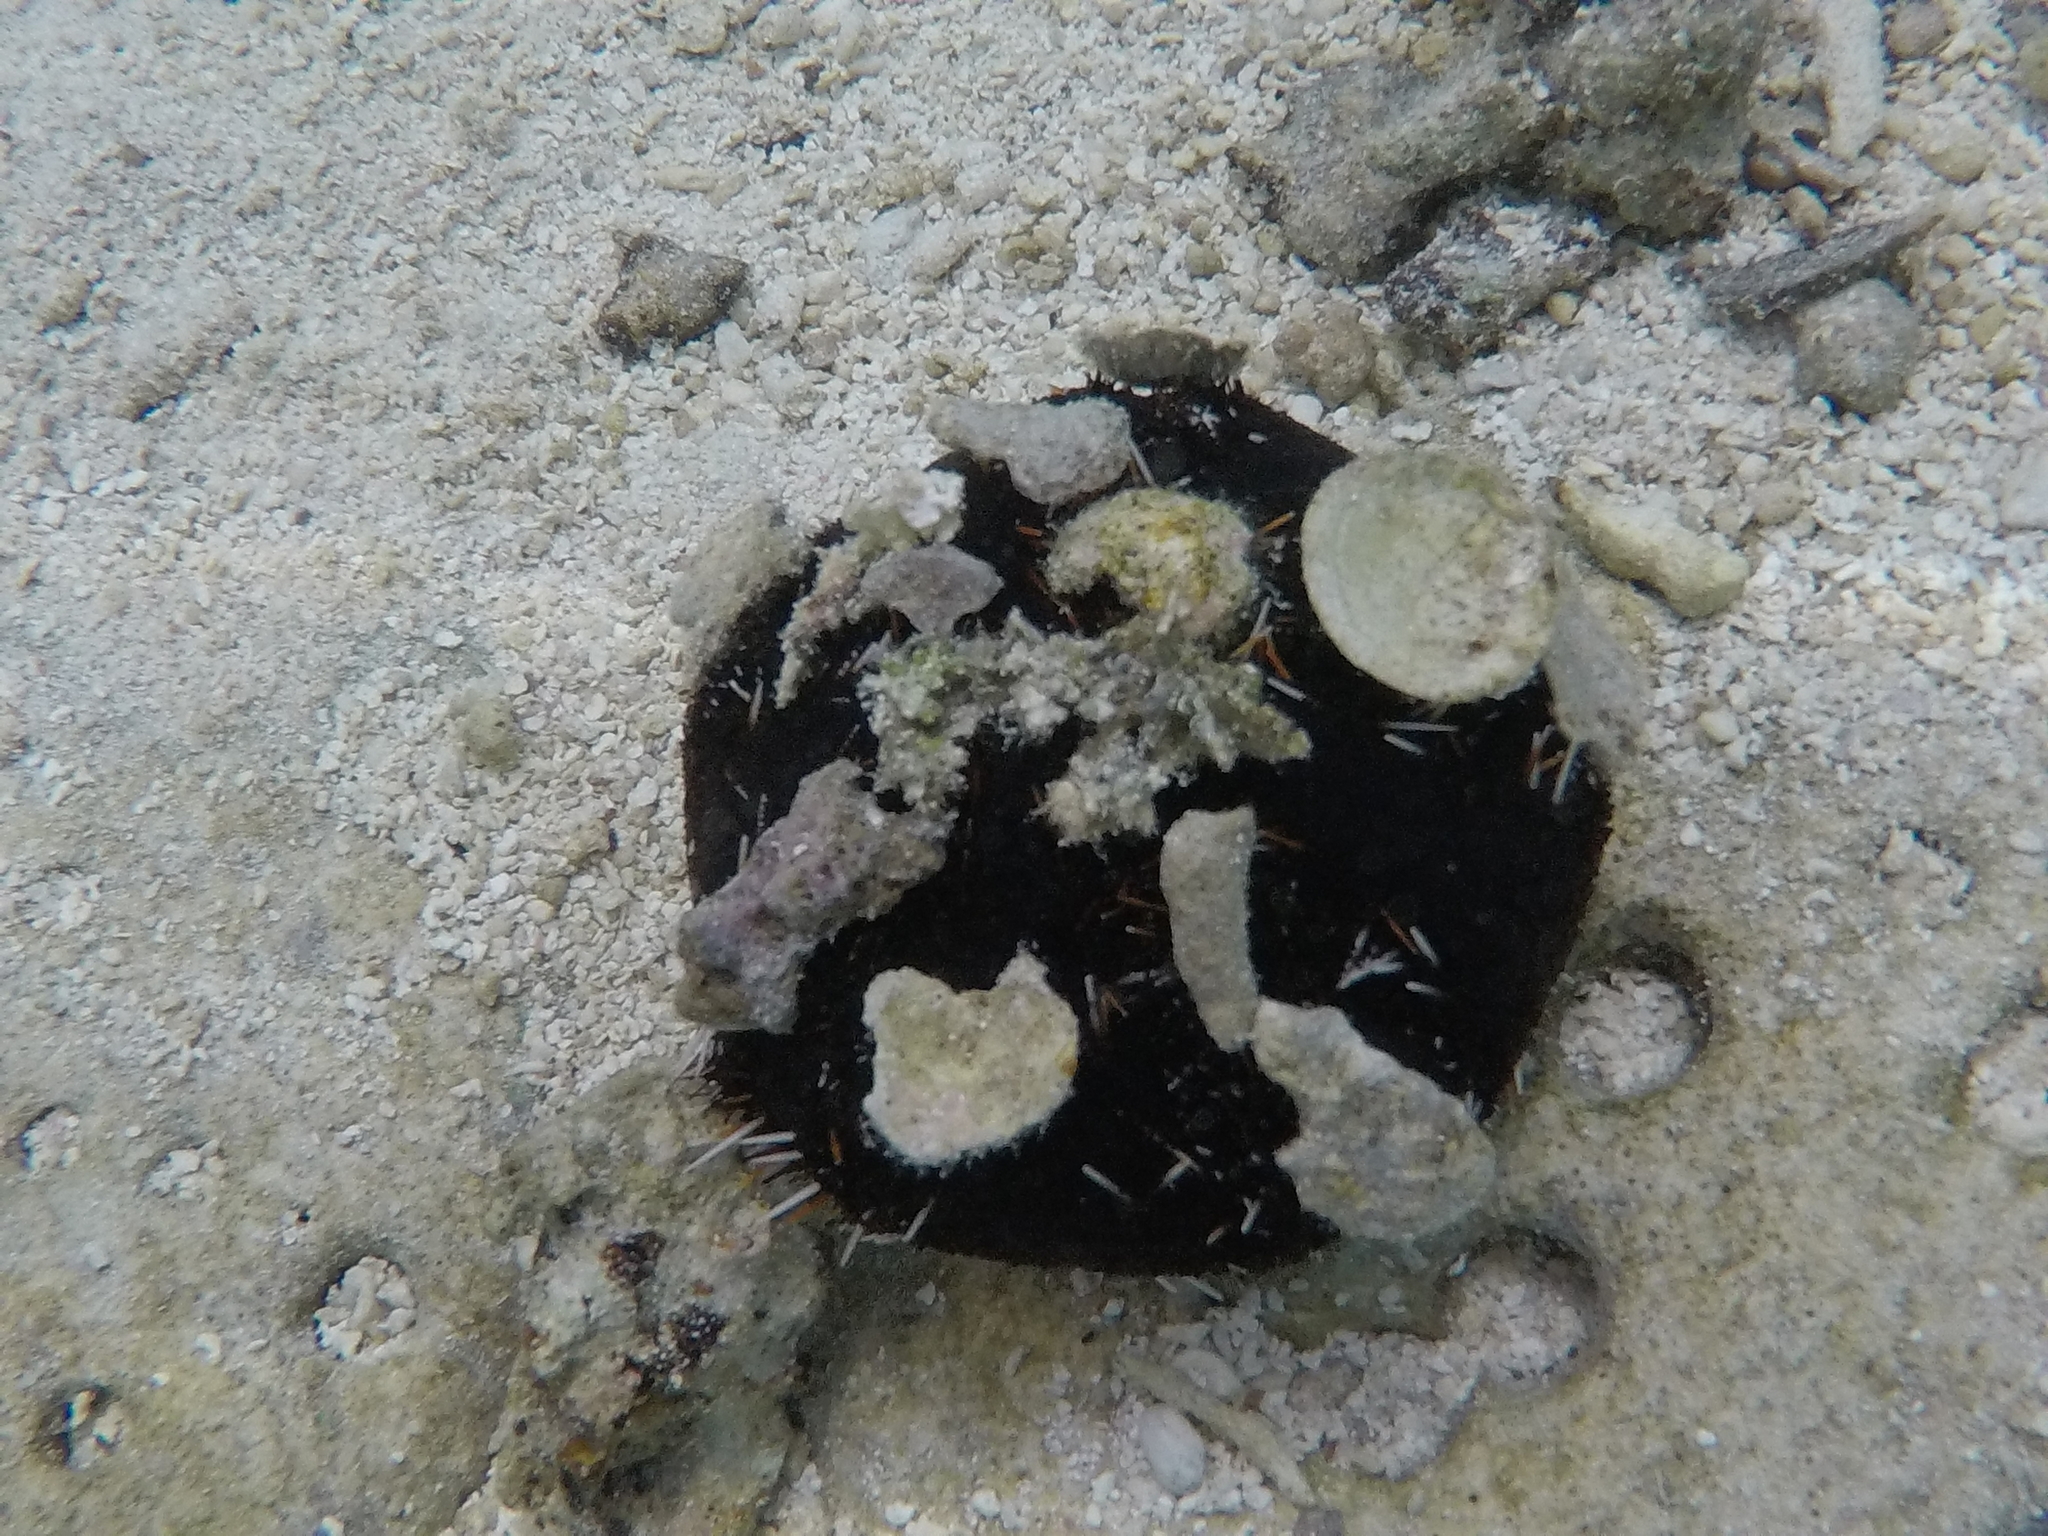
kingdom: Animalia
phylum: Echinodermata
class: Echinoidea
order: Camarodonta
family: Toxopneustidae
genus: Tripneustes
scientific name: Tripneustes gratilla
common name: Bischofsmützenseeigel
